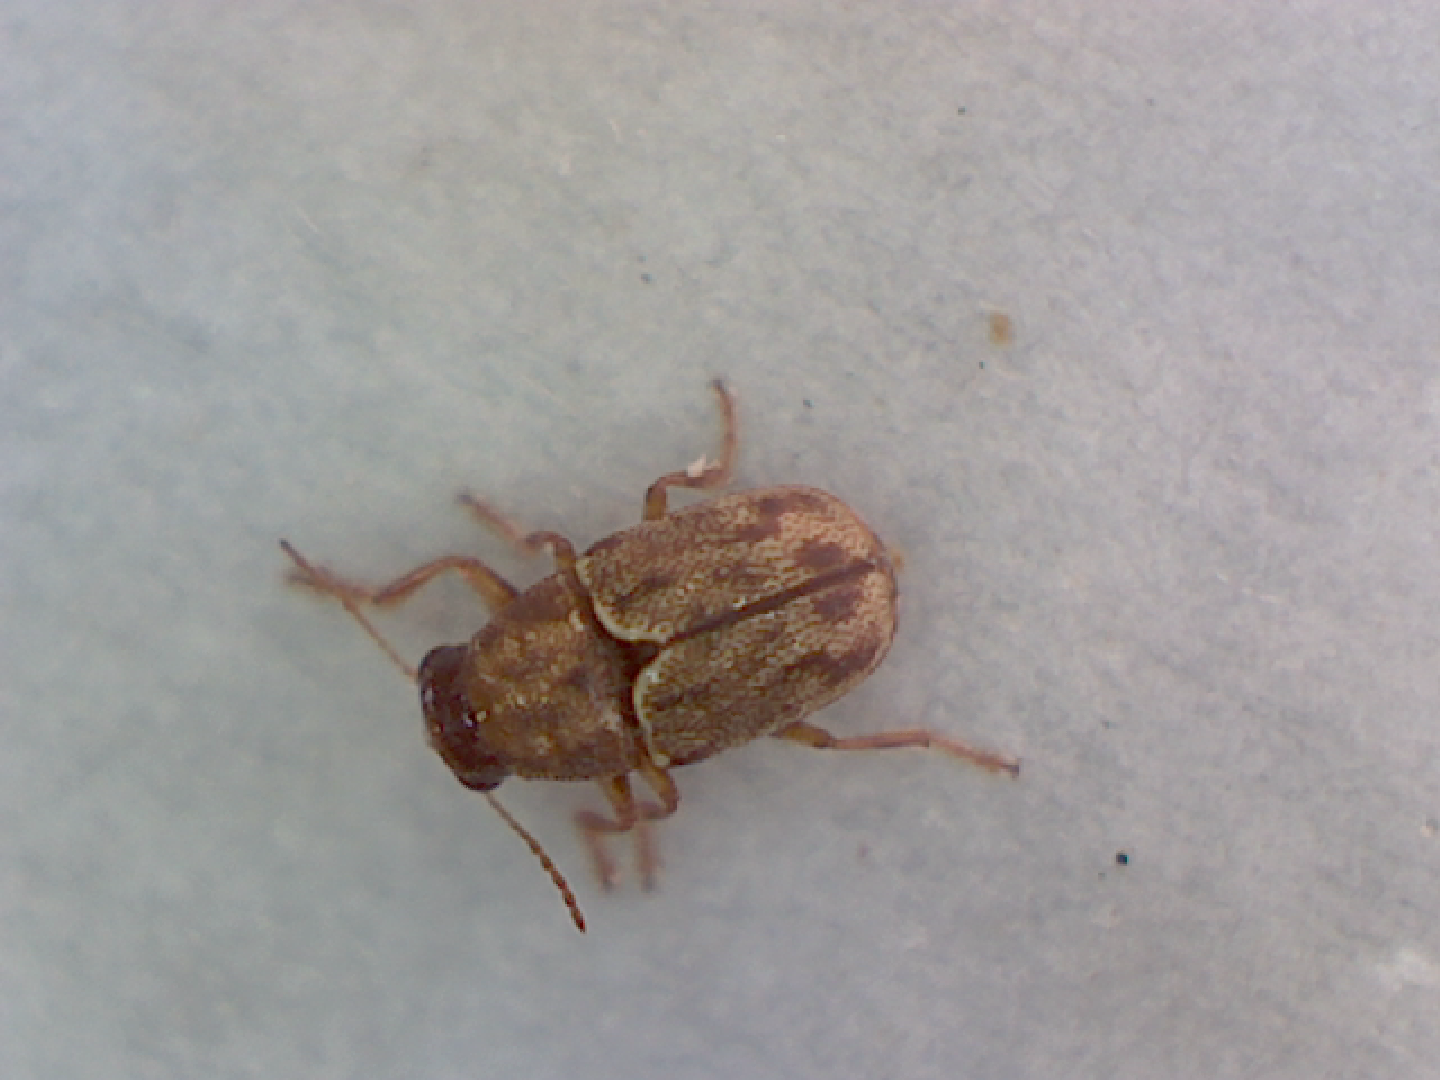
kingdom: Animalia
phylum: Arthropoda
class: Insecta
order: Coleoptera
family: Chrysomelidae
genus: Pachybrachis
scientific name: Pachybrachis hepaticus
